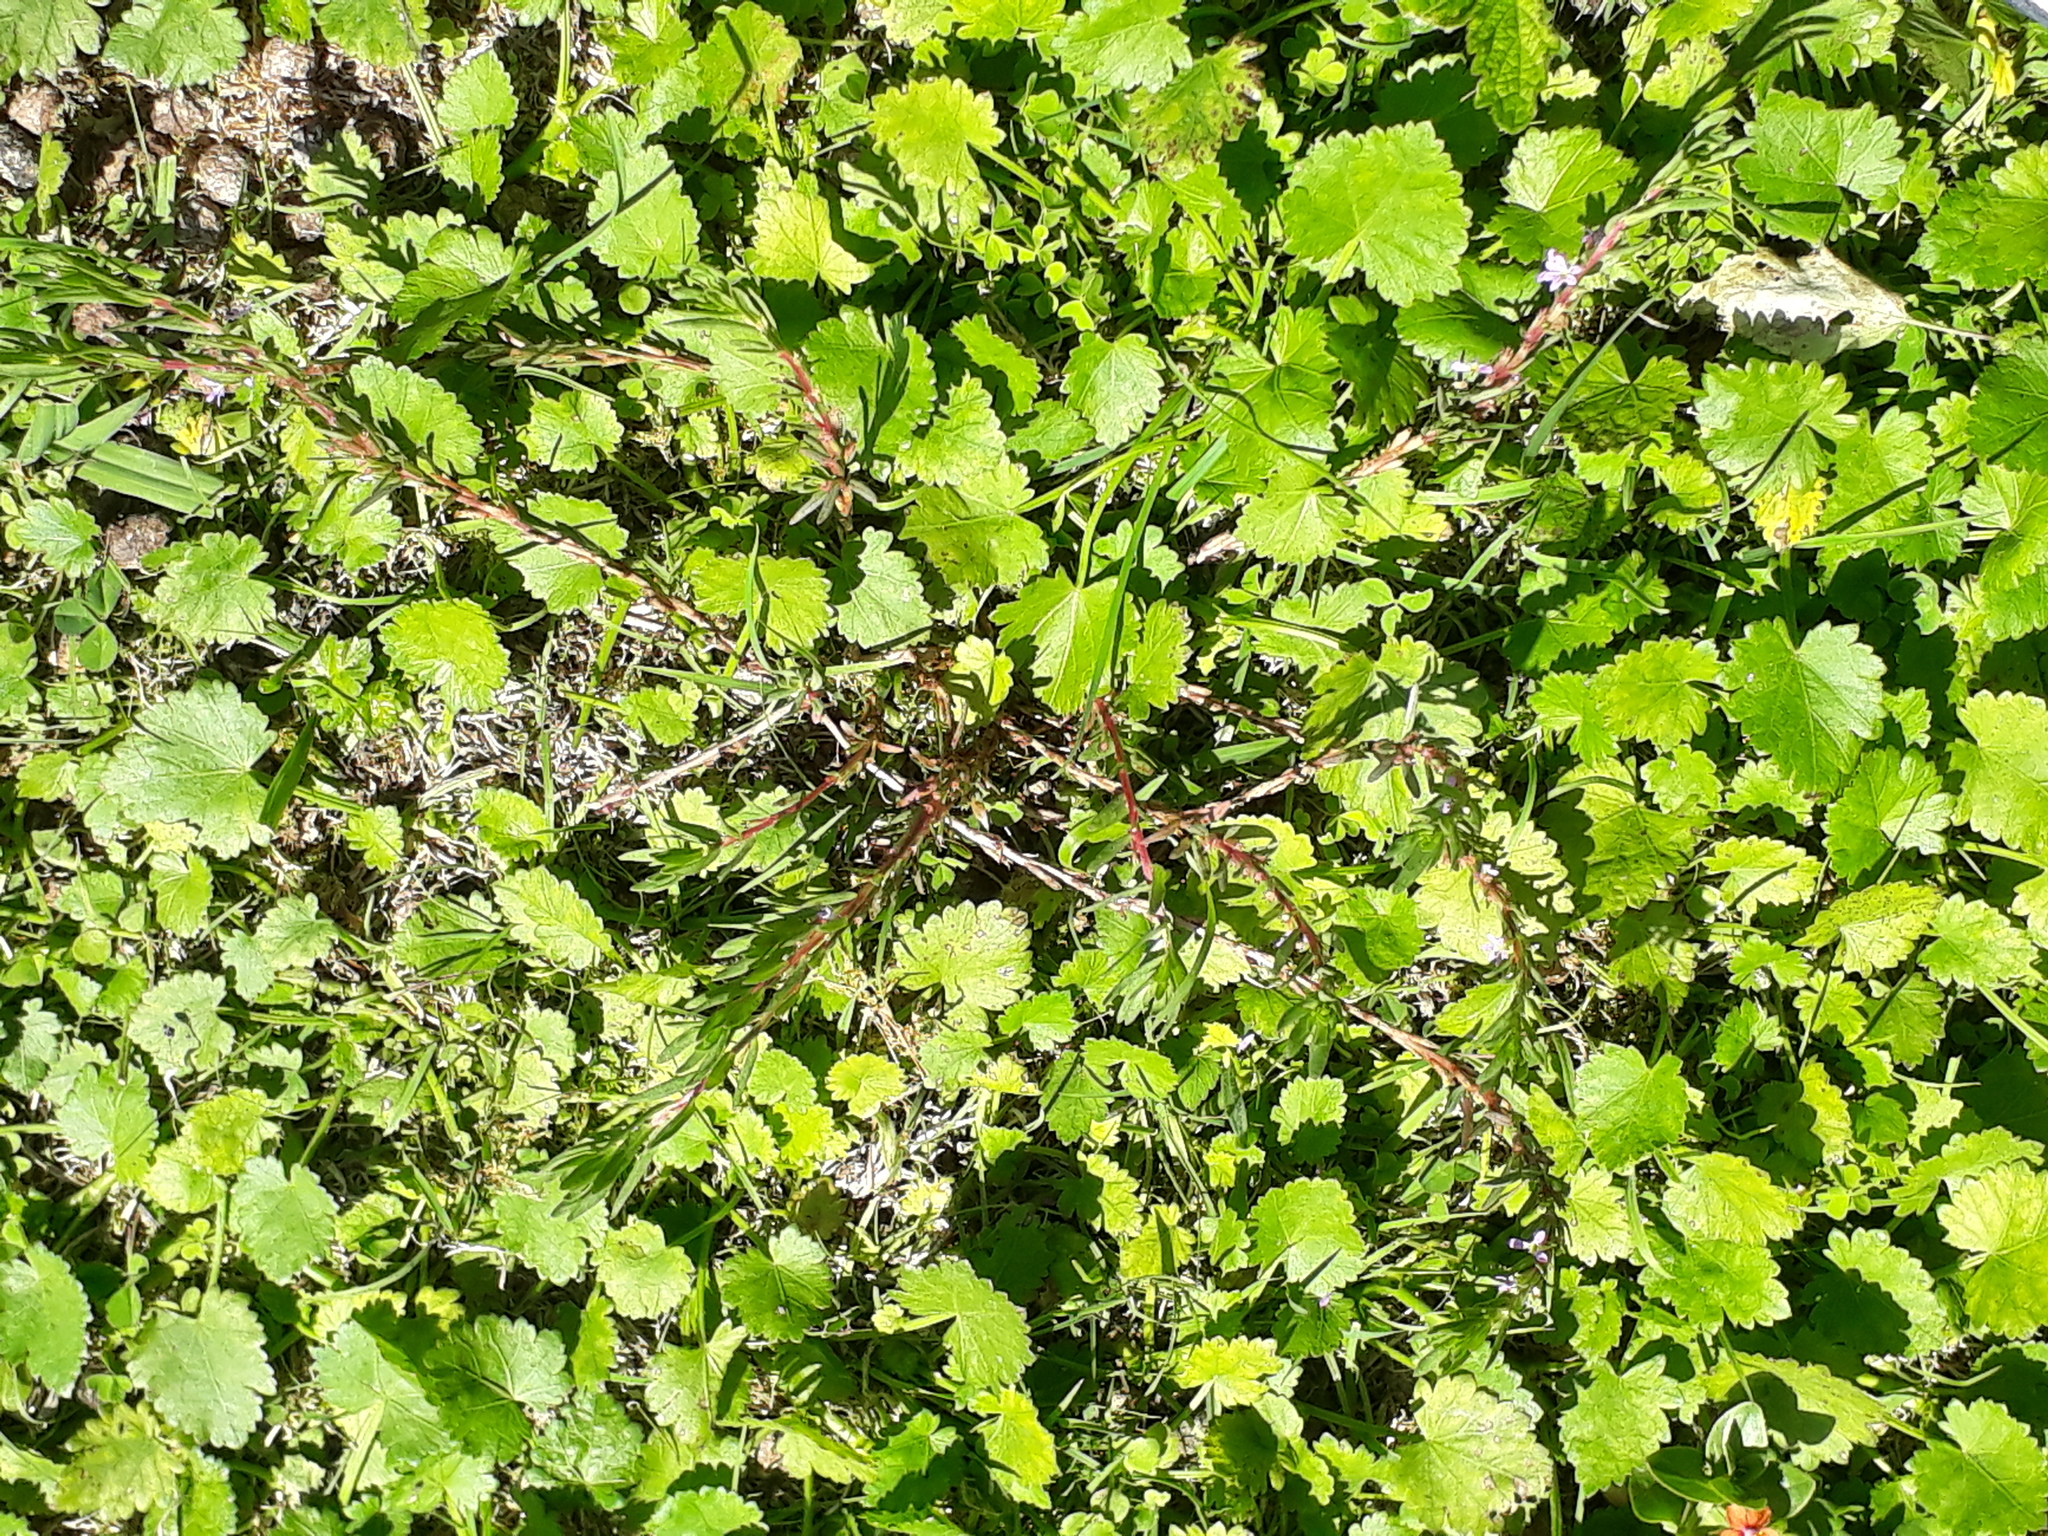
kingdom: Plantae
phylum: Tracheophyta
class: Magnoliopsida
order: Malvales
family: Malvaceae
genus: Modiola
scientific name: Modiola caroliniana
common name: Carolina bristlemallow
